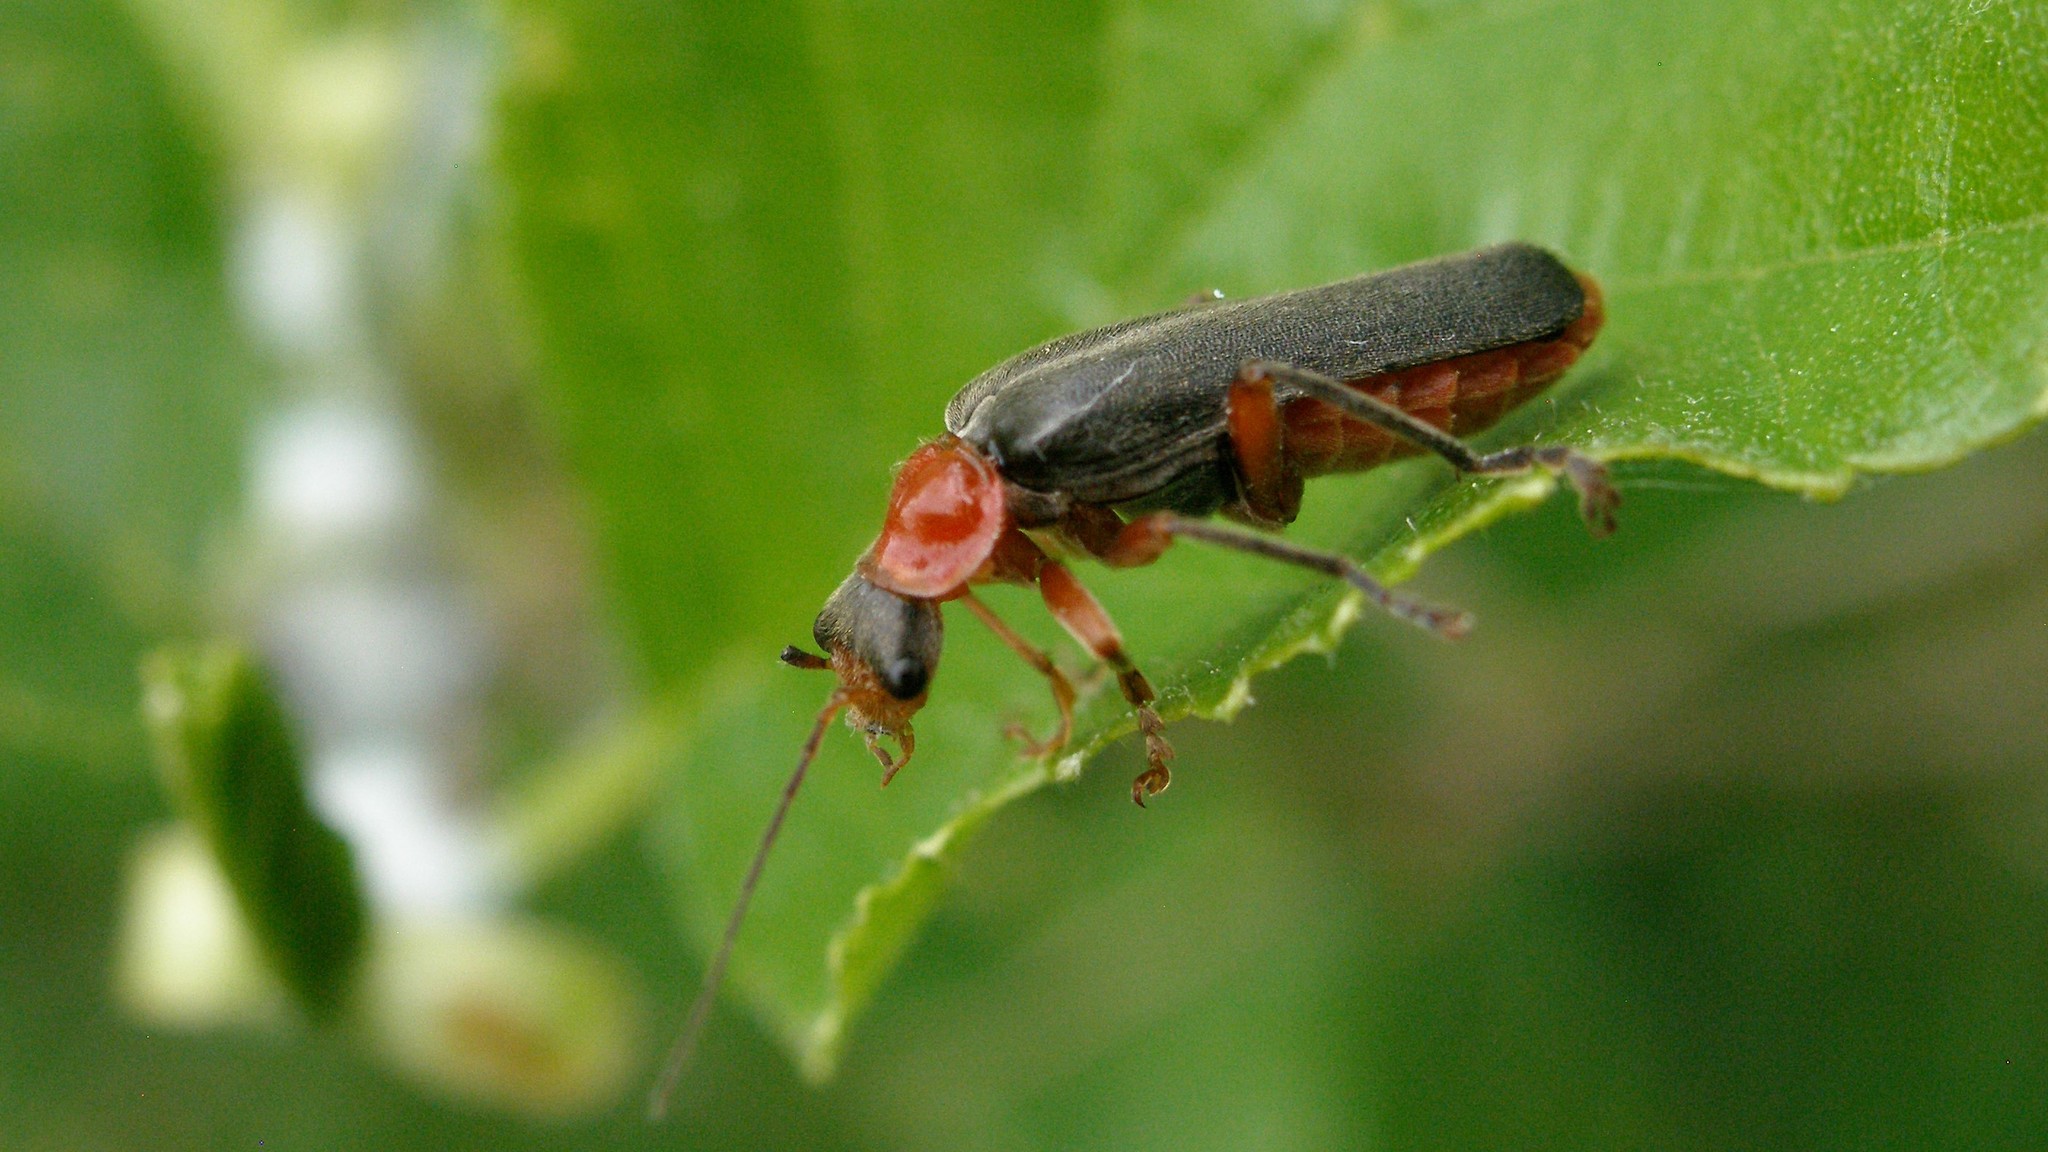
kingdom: Animalia
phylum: Arthropoda
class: Insecta
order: Coleoptera
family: Cantharidae
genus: Cantharis
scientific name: Cantharis pellucida
